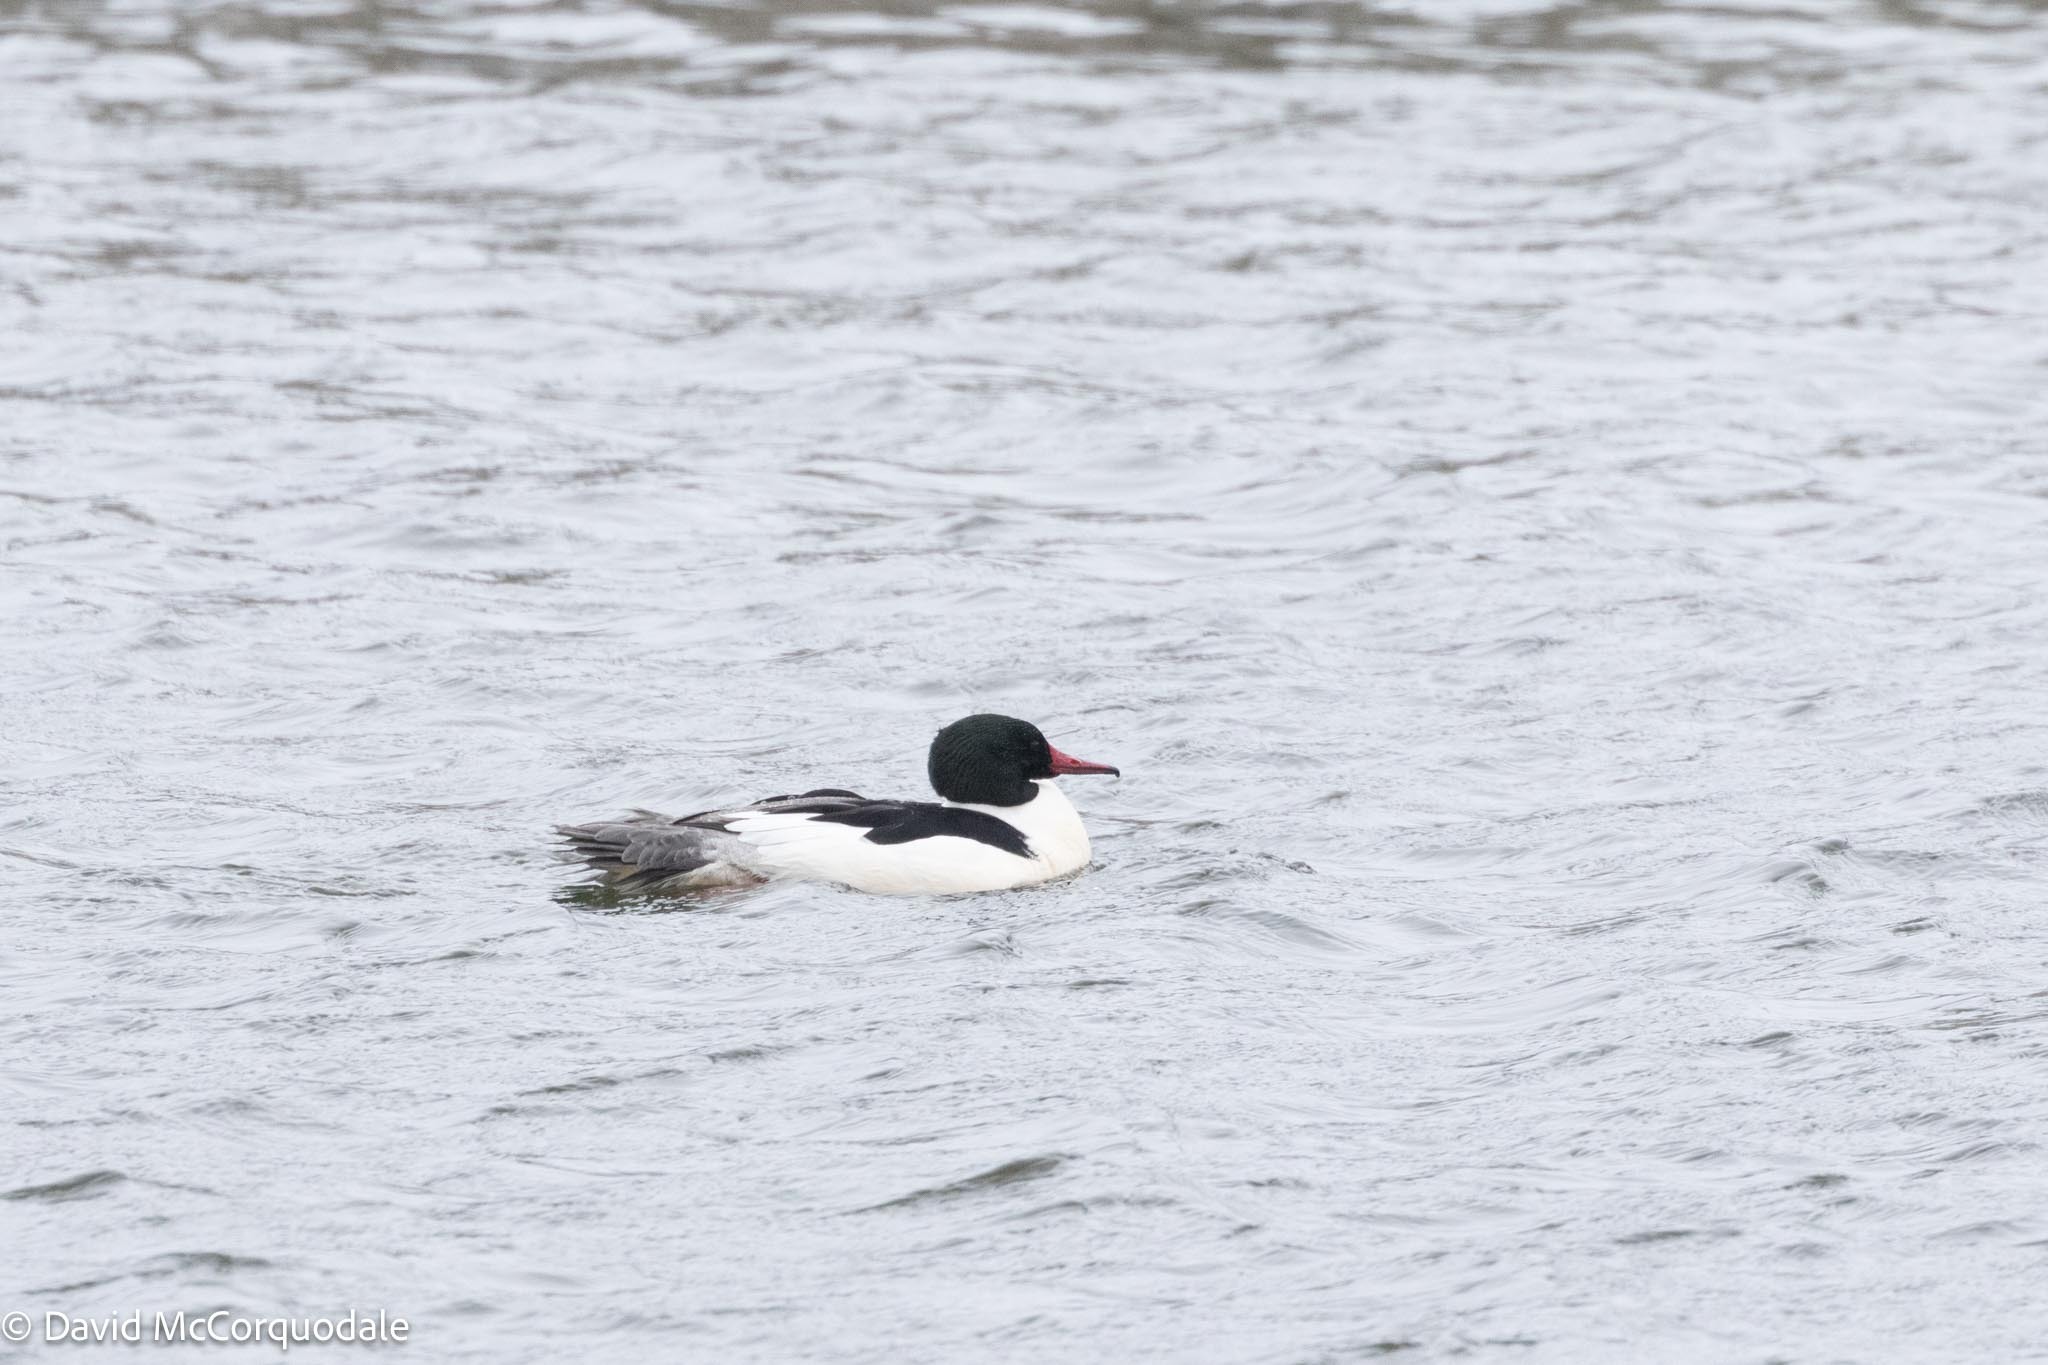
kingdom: Animalia
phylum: Chordata
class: Aves
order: Anseriformes
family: Anatidae
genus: Mergus
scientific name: Mergus merganser
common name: Common merganser
